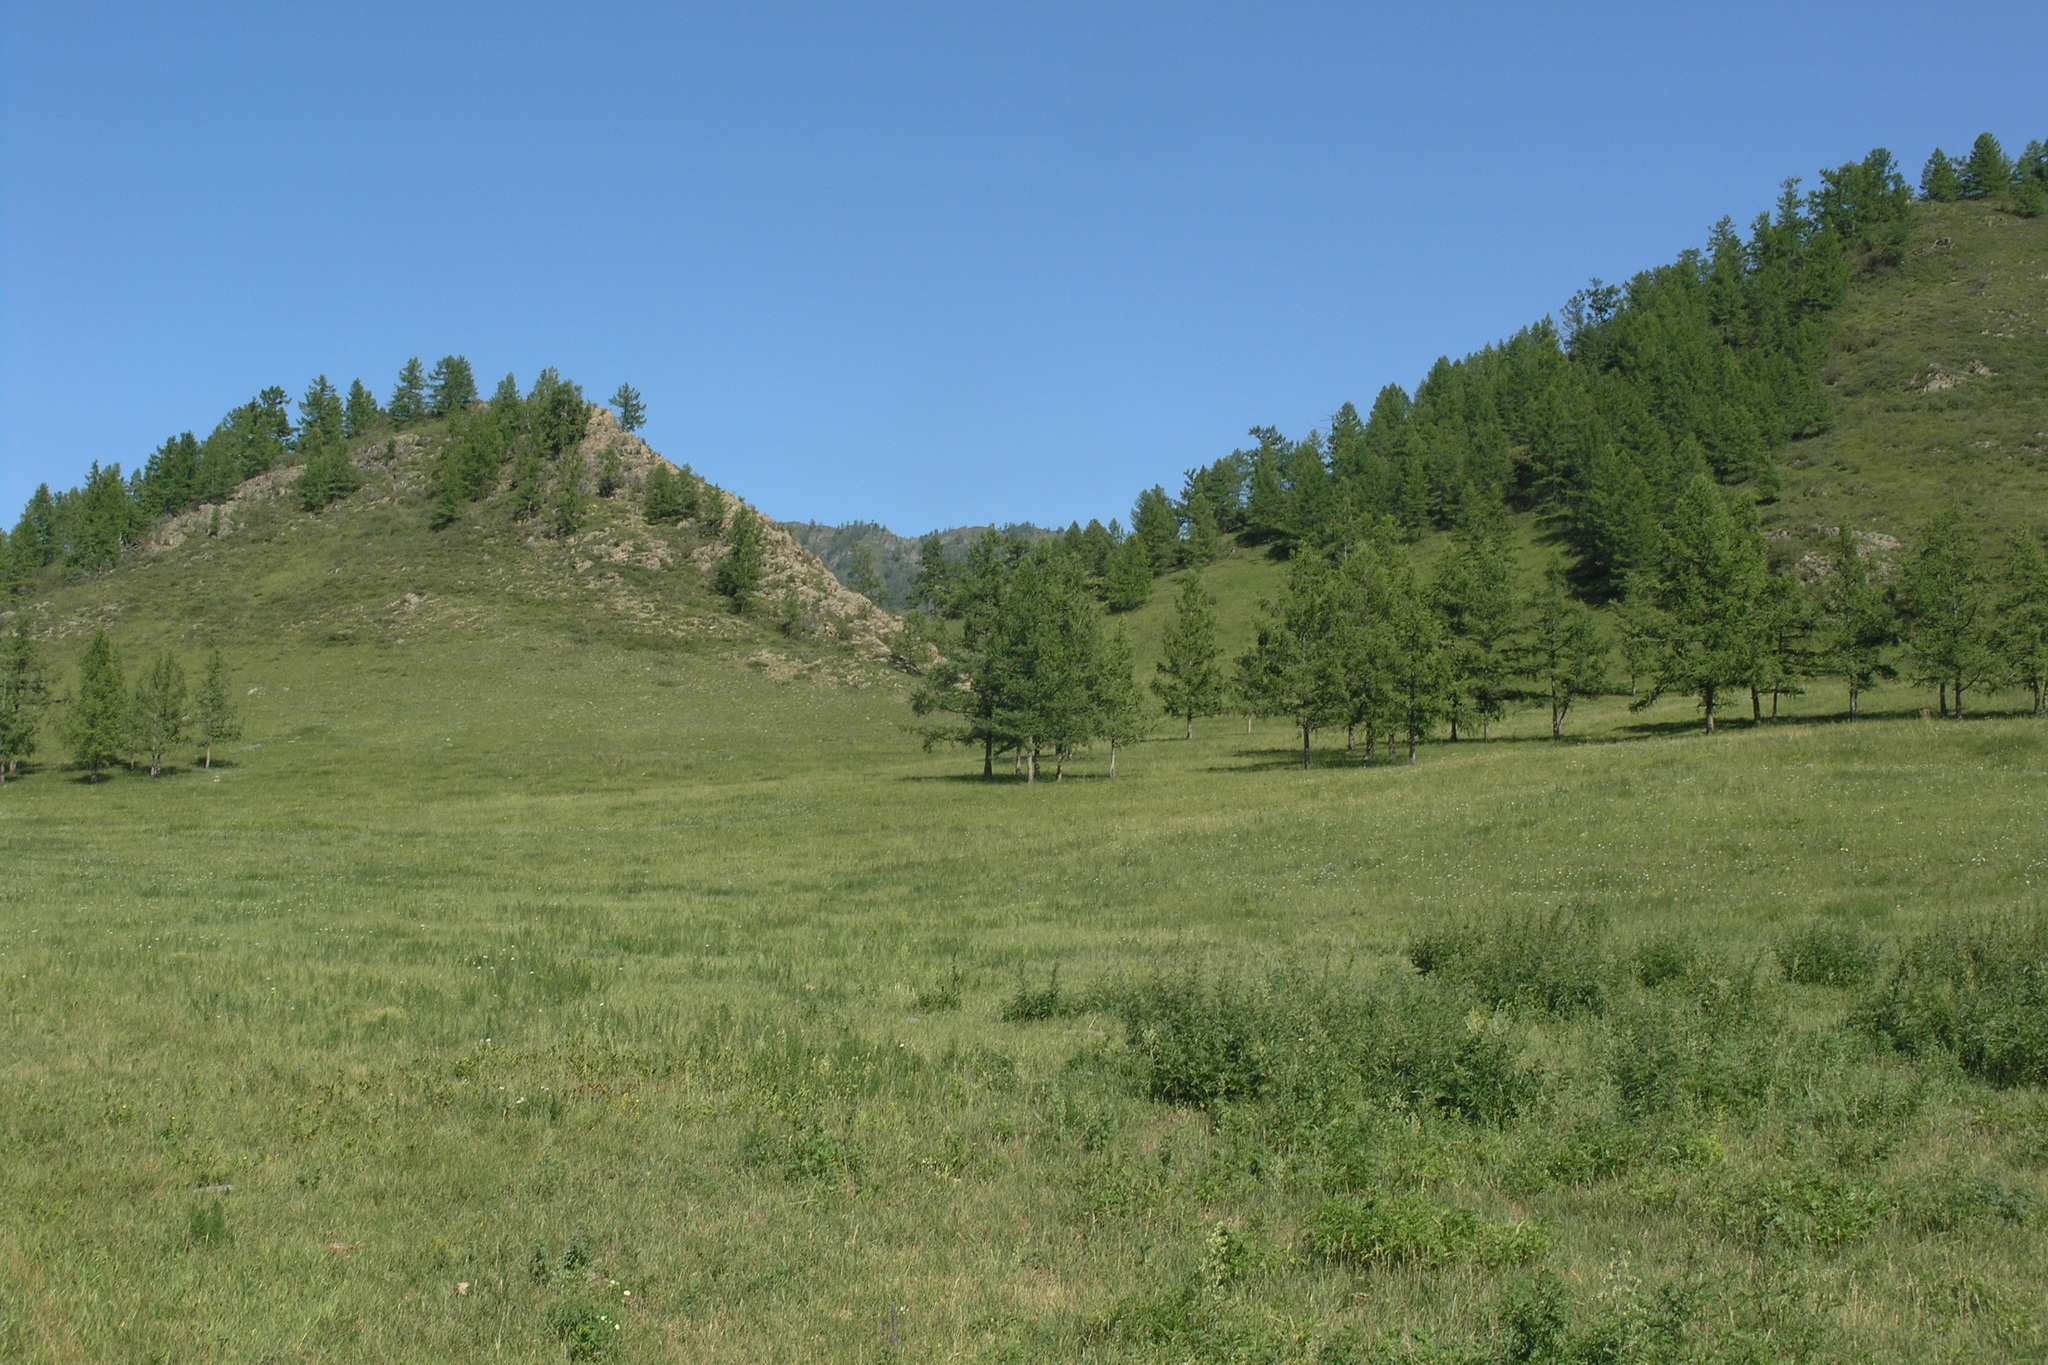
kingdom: Plantae
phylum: Tracheophyta
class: Pinopsida
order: Pinales
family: Pinaceae
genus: Larix
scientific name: Larix sibirica
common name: Siberian larch
